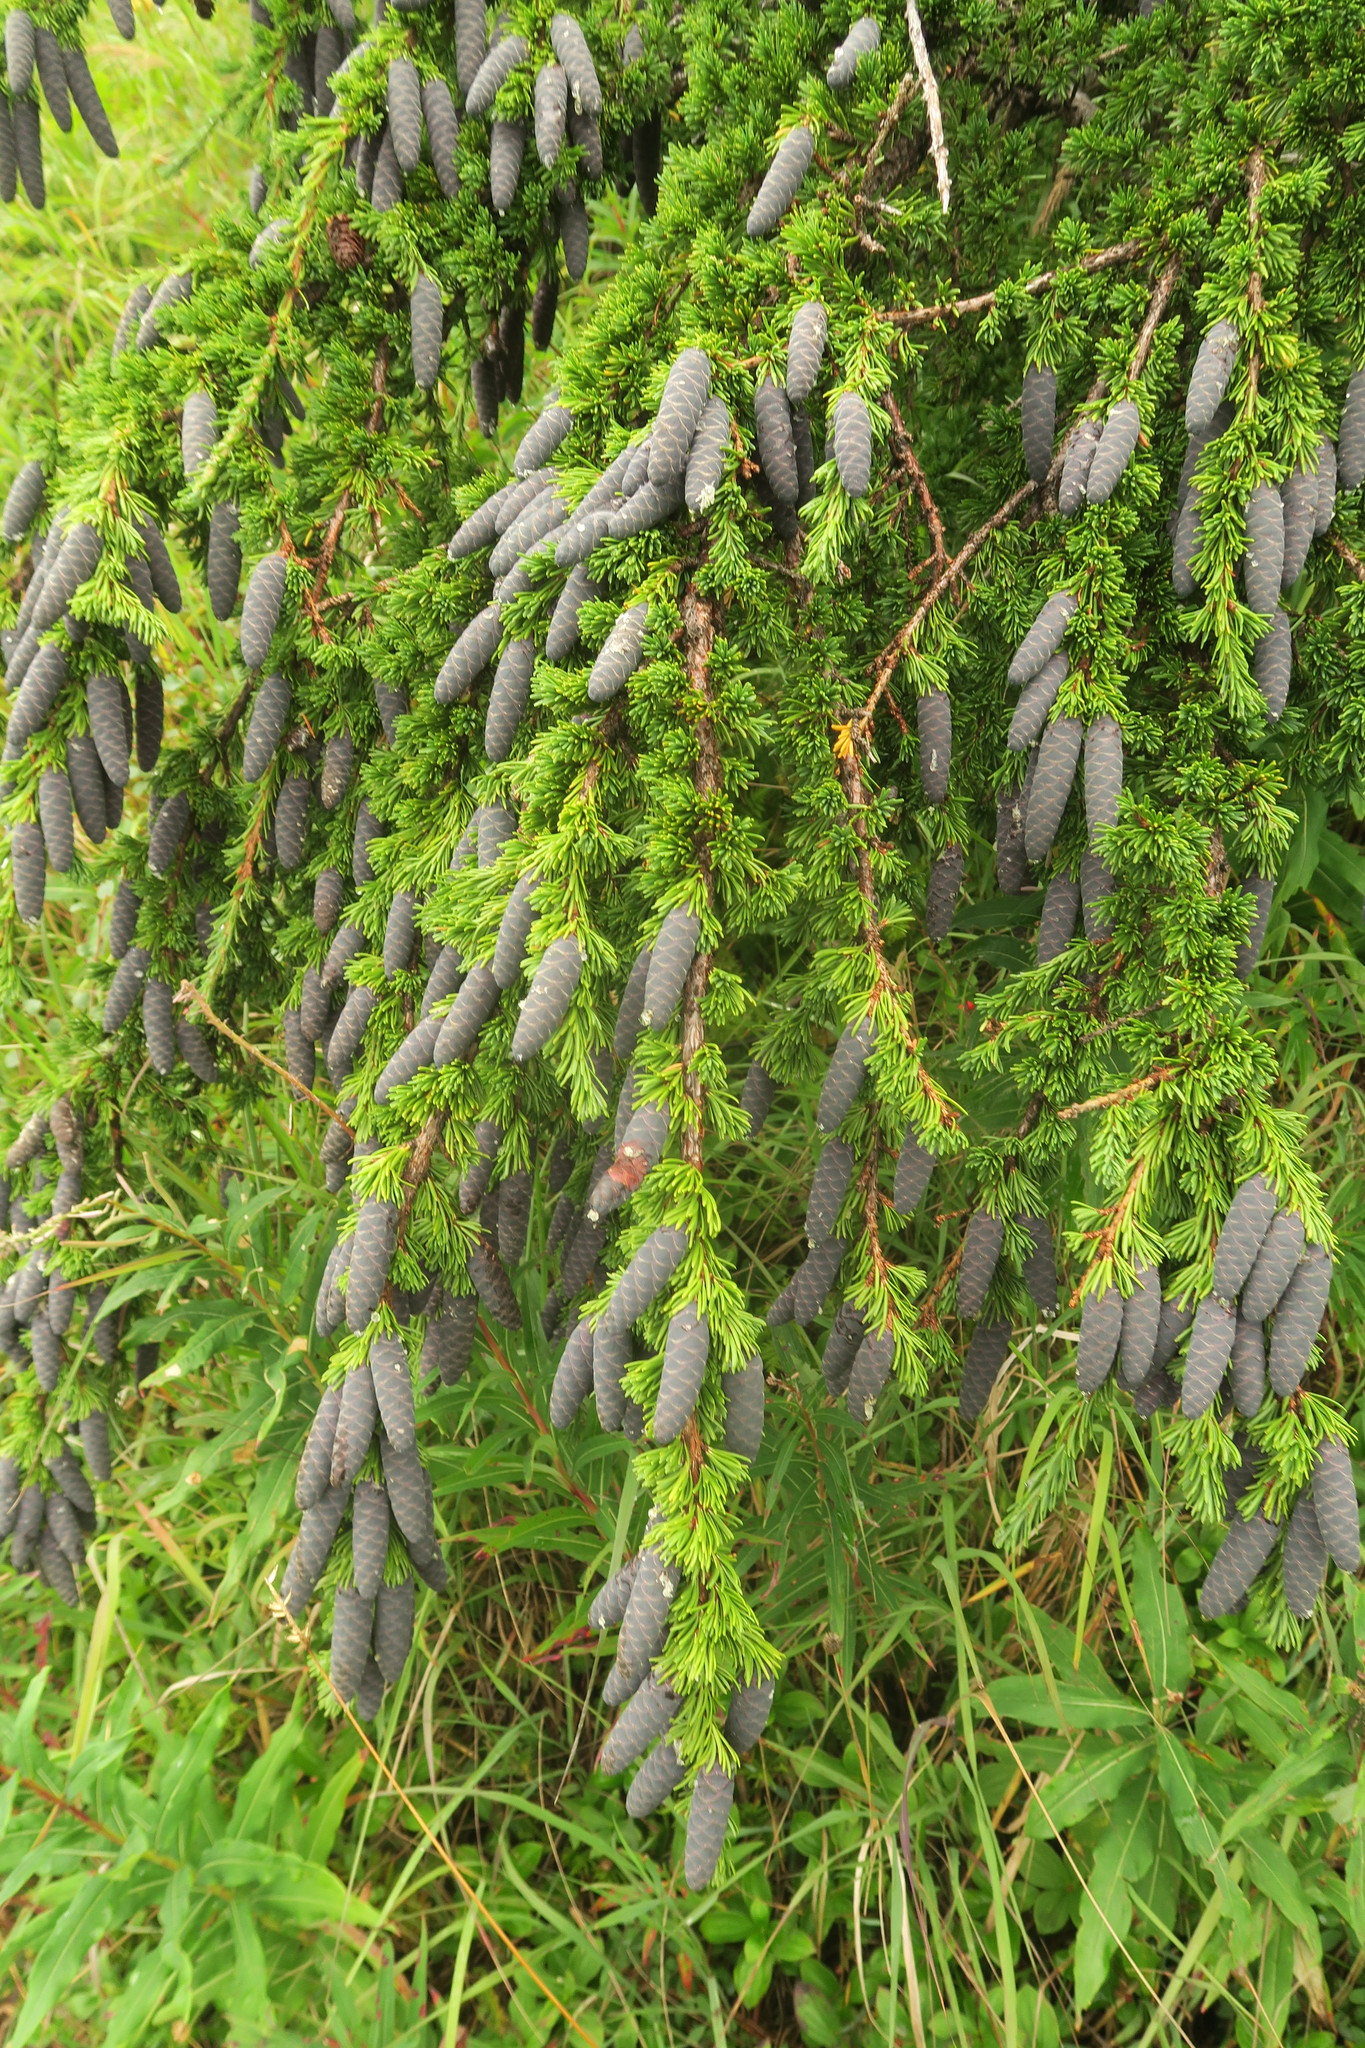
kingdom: Plantae
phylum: Tracheophyta
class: Pinopsida
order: Pinales
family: Pinaceae
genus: Tsuga
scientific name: Tsuga mertensiana
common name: Mountain hemlock
